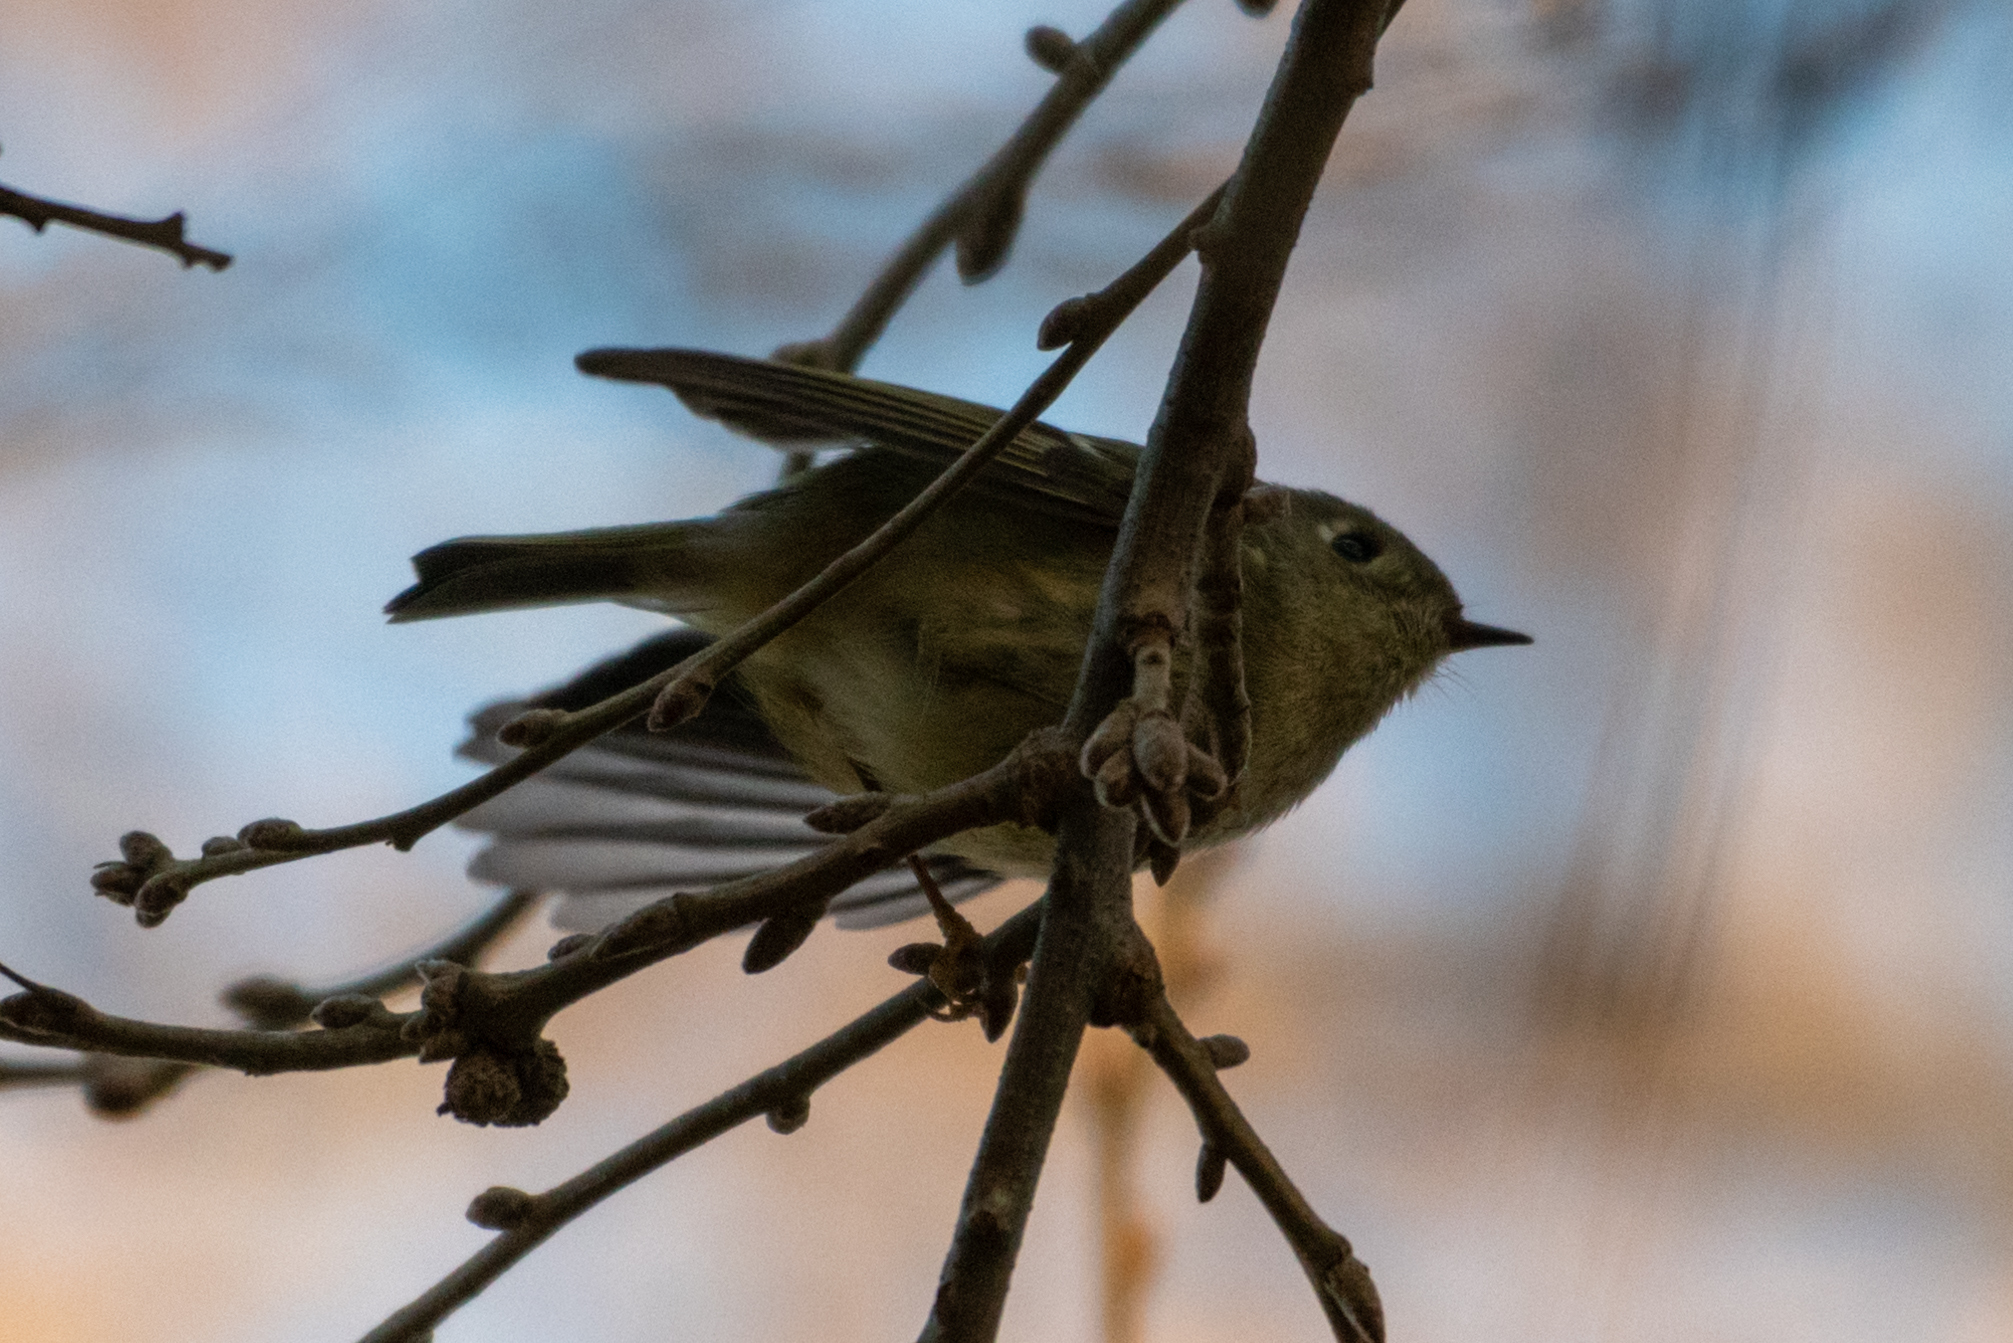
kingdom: Animalia
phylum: Chordata
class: Aves
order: Passeriformes
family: Regulidae
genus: Regulus
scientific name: Regulus calendula
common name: Ruby-crowned kinglet
